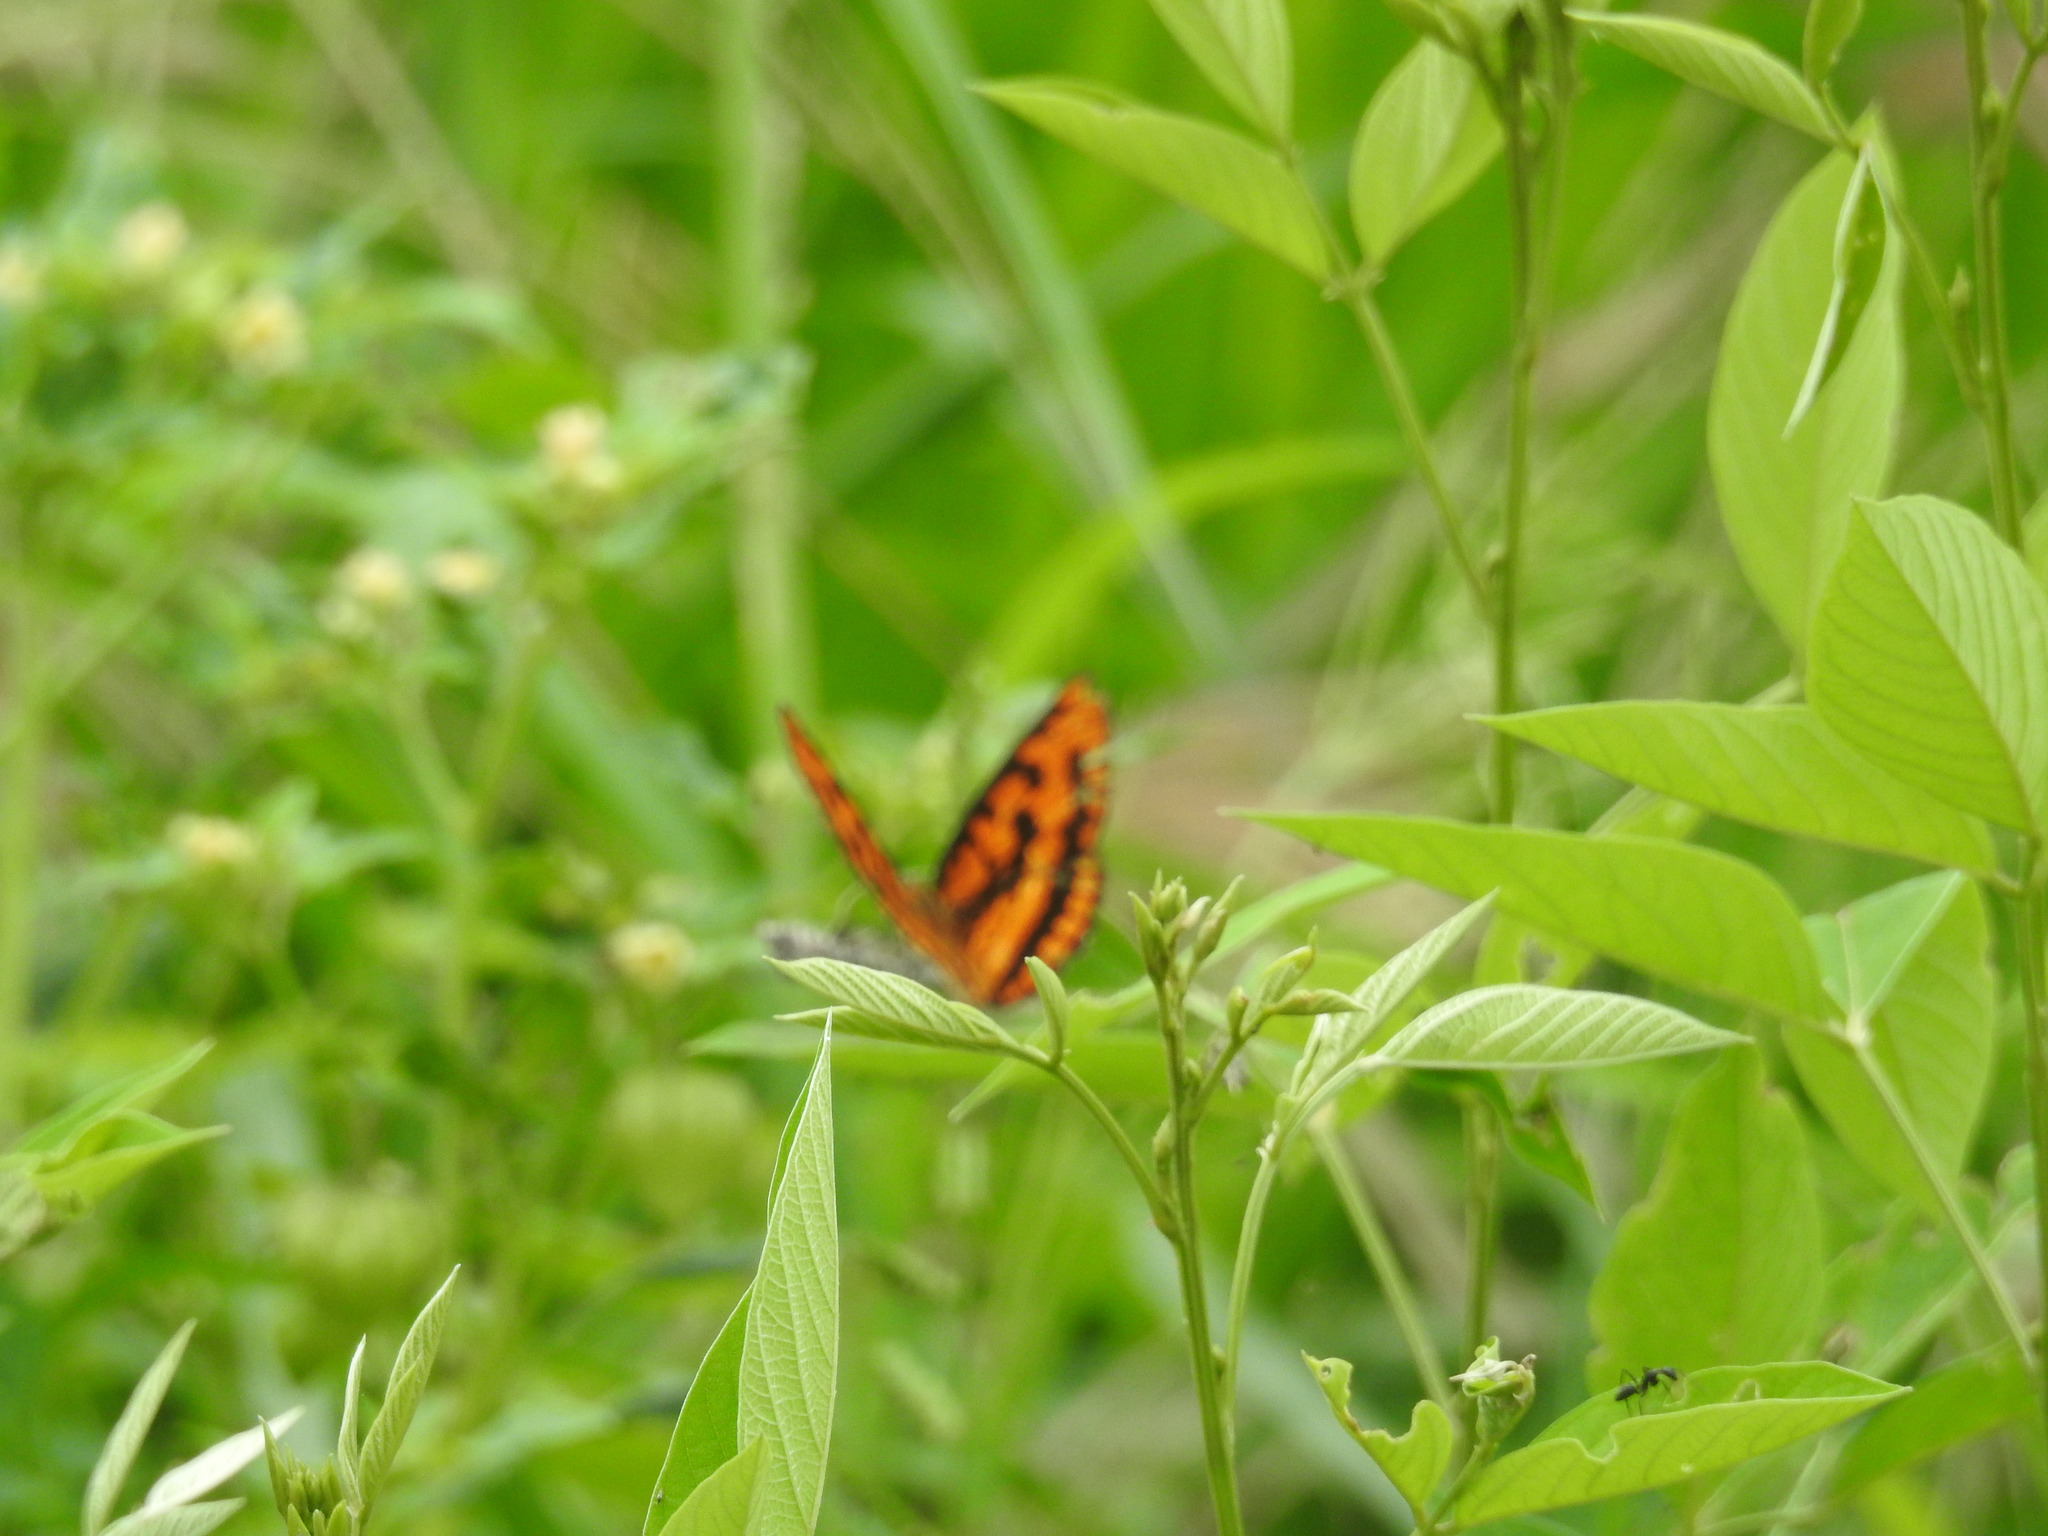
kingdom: Animalia
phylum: Arthropoda
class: Insecta
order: Lepidoptera
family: Nymphalidae
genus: Byblia
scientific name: Byblia ilithyia
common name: Spotted joker
